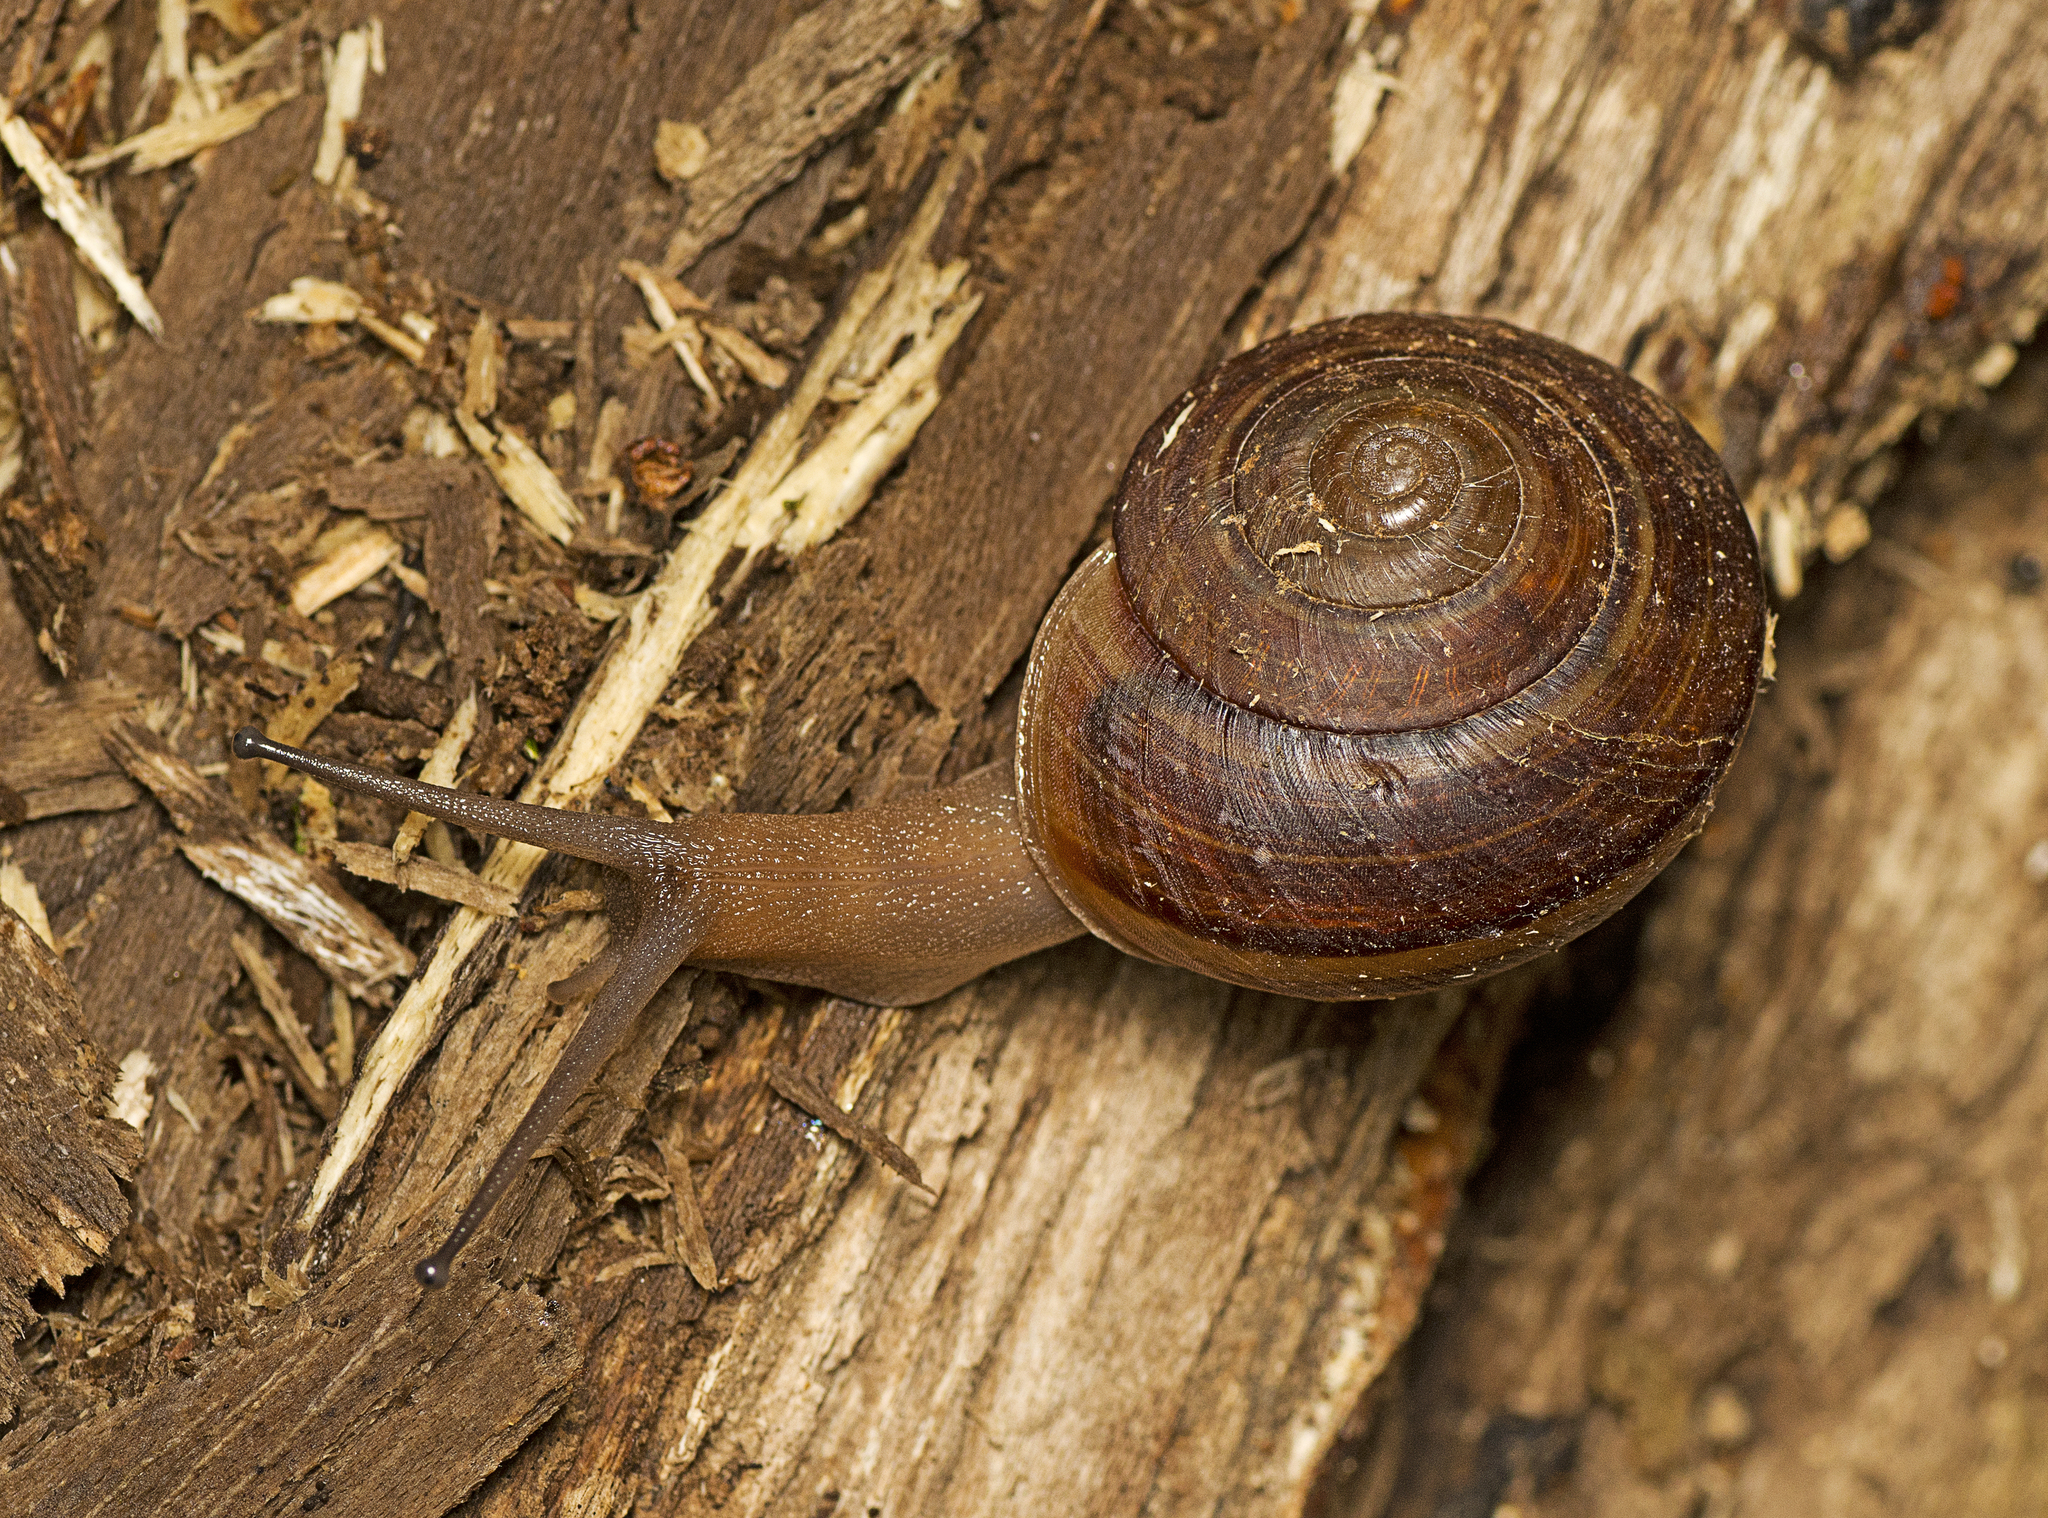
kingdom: Animalia
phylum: Mollusca
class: Gastropoda
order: Stylommatophora
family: Camaenidae
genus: Sphaerospira
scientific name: Sphaerospira fraseri
